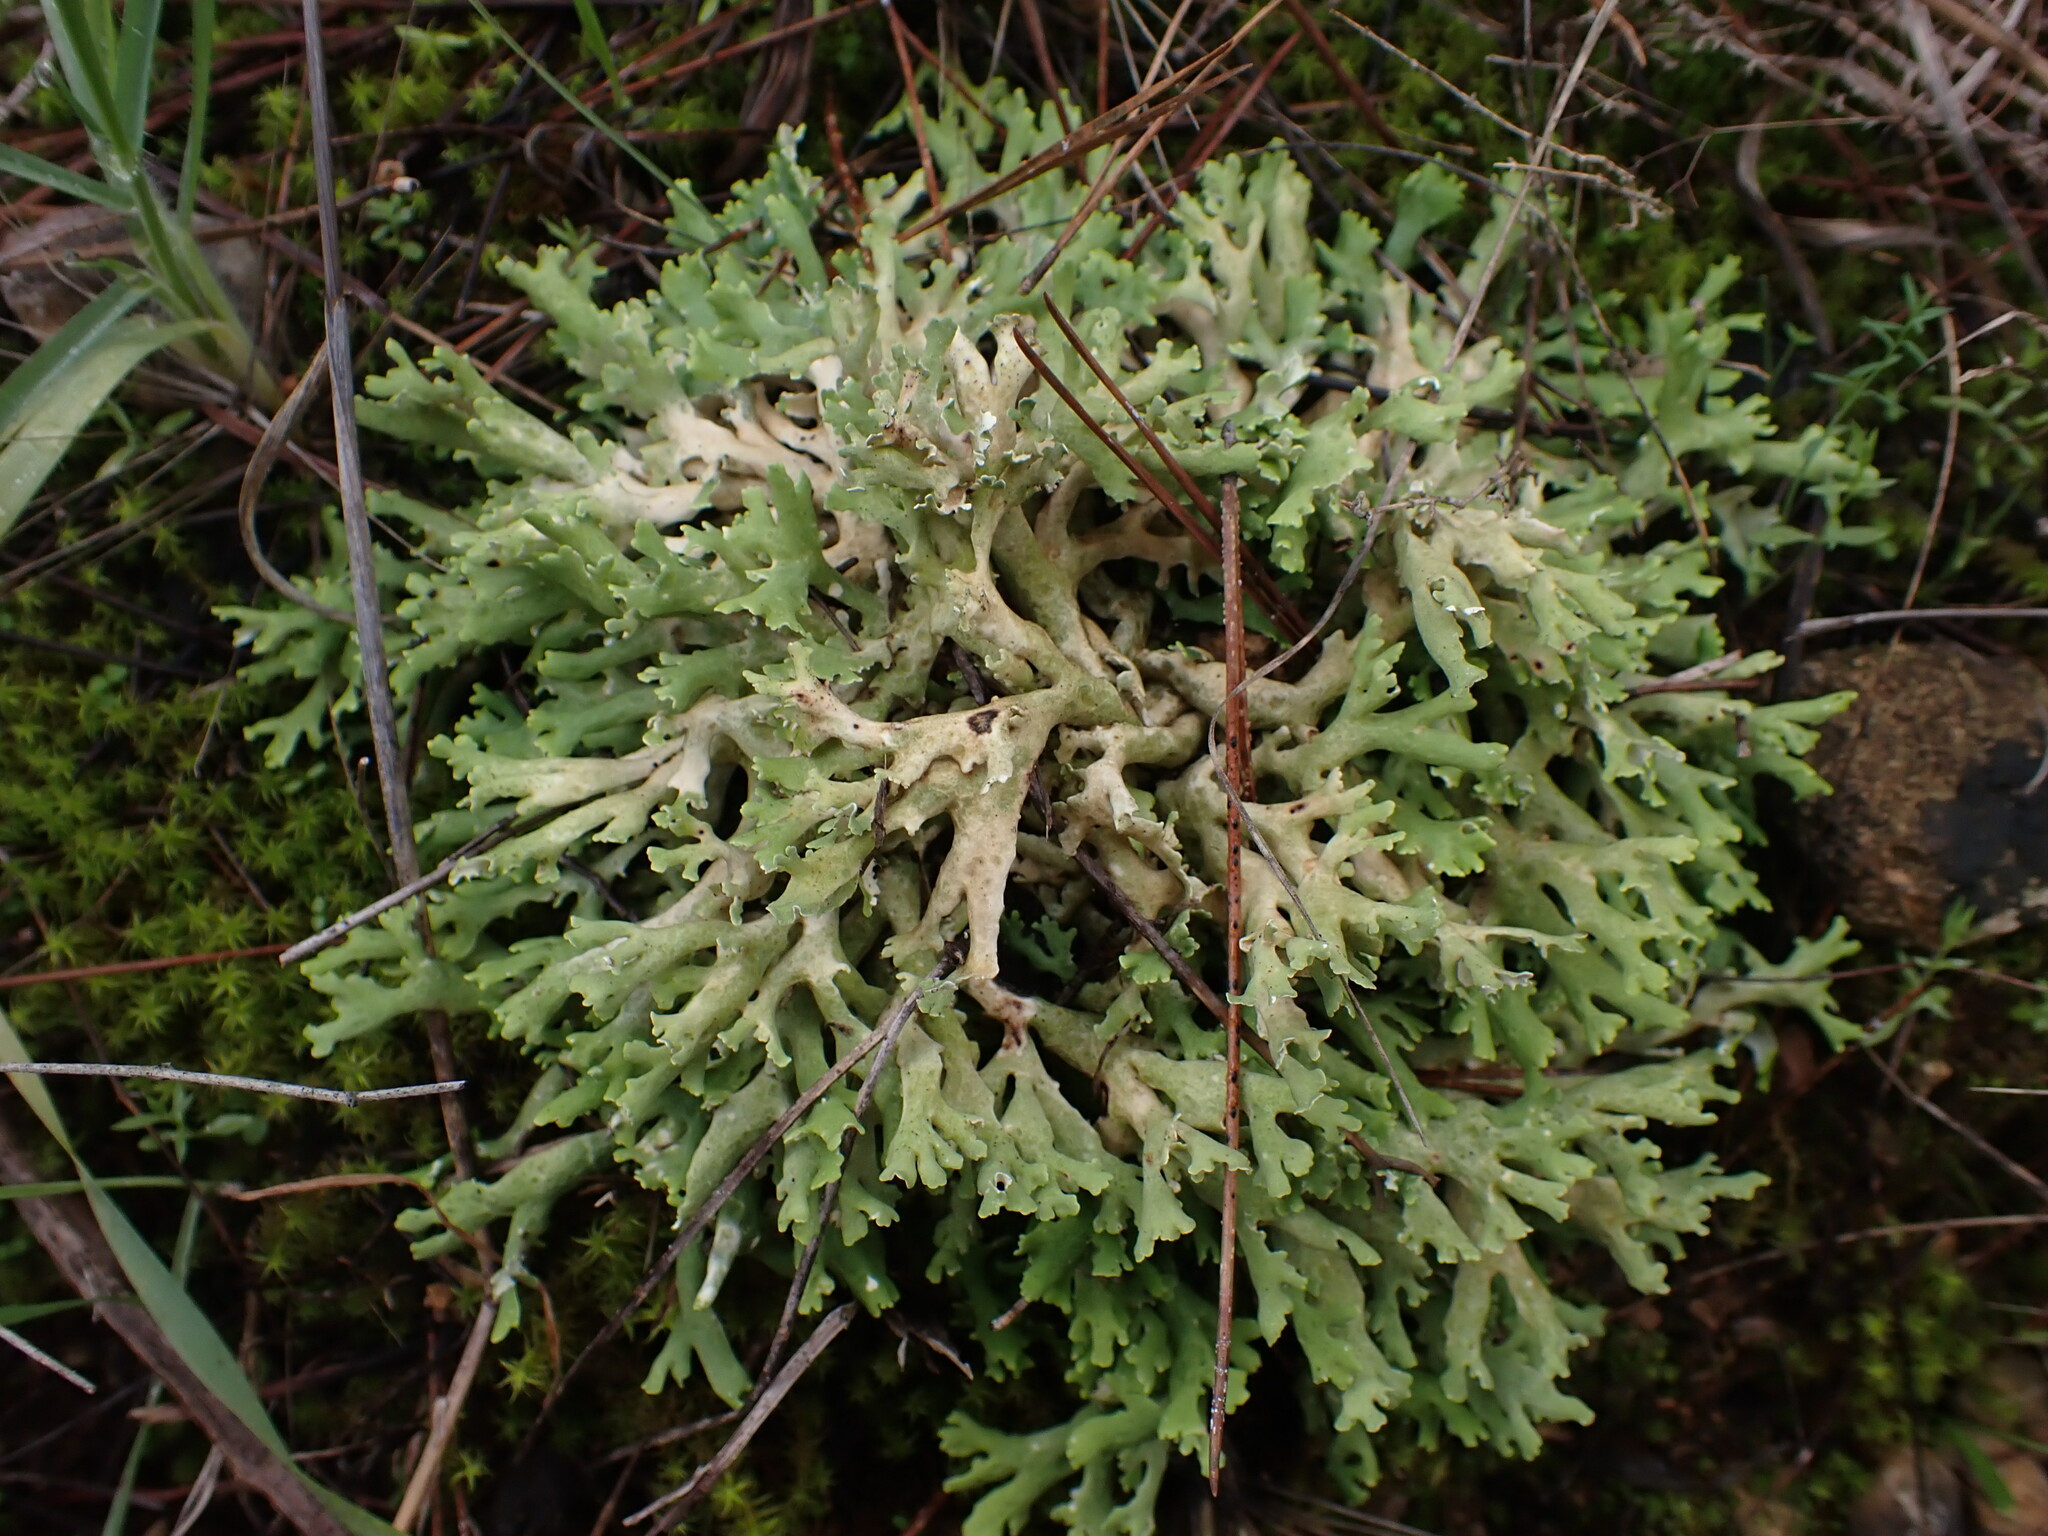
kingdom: Fungi
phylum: Ascomycota
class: Lecanoromycetes
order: Lecanorales
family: Cladoniaceae
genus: Cladonia
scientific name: Cladonia foliacea
